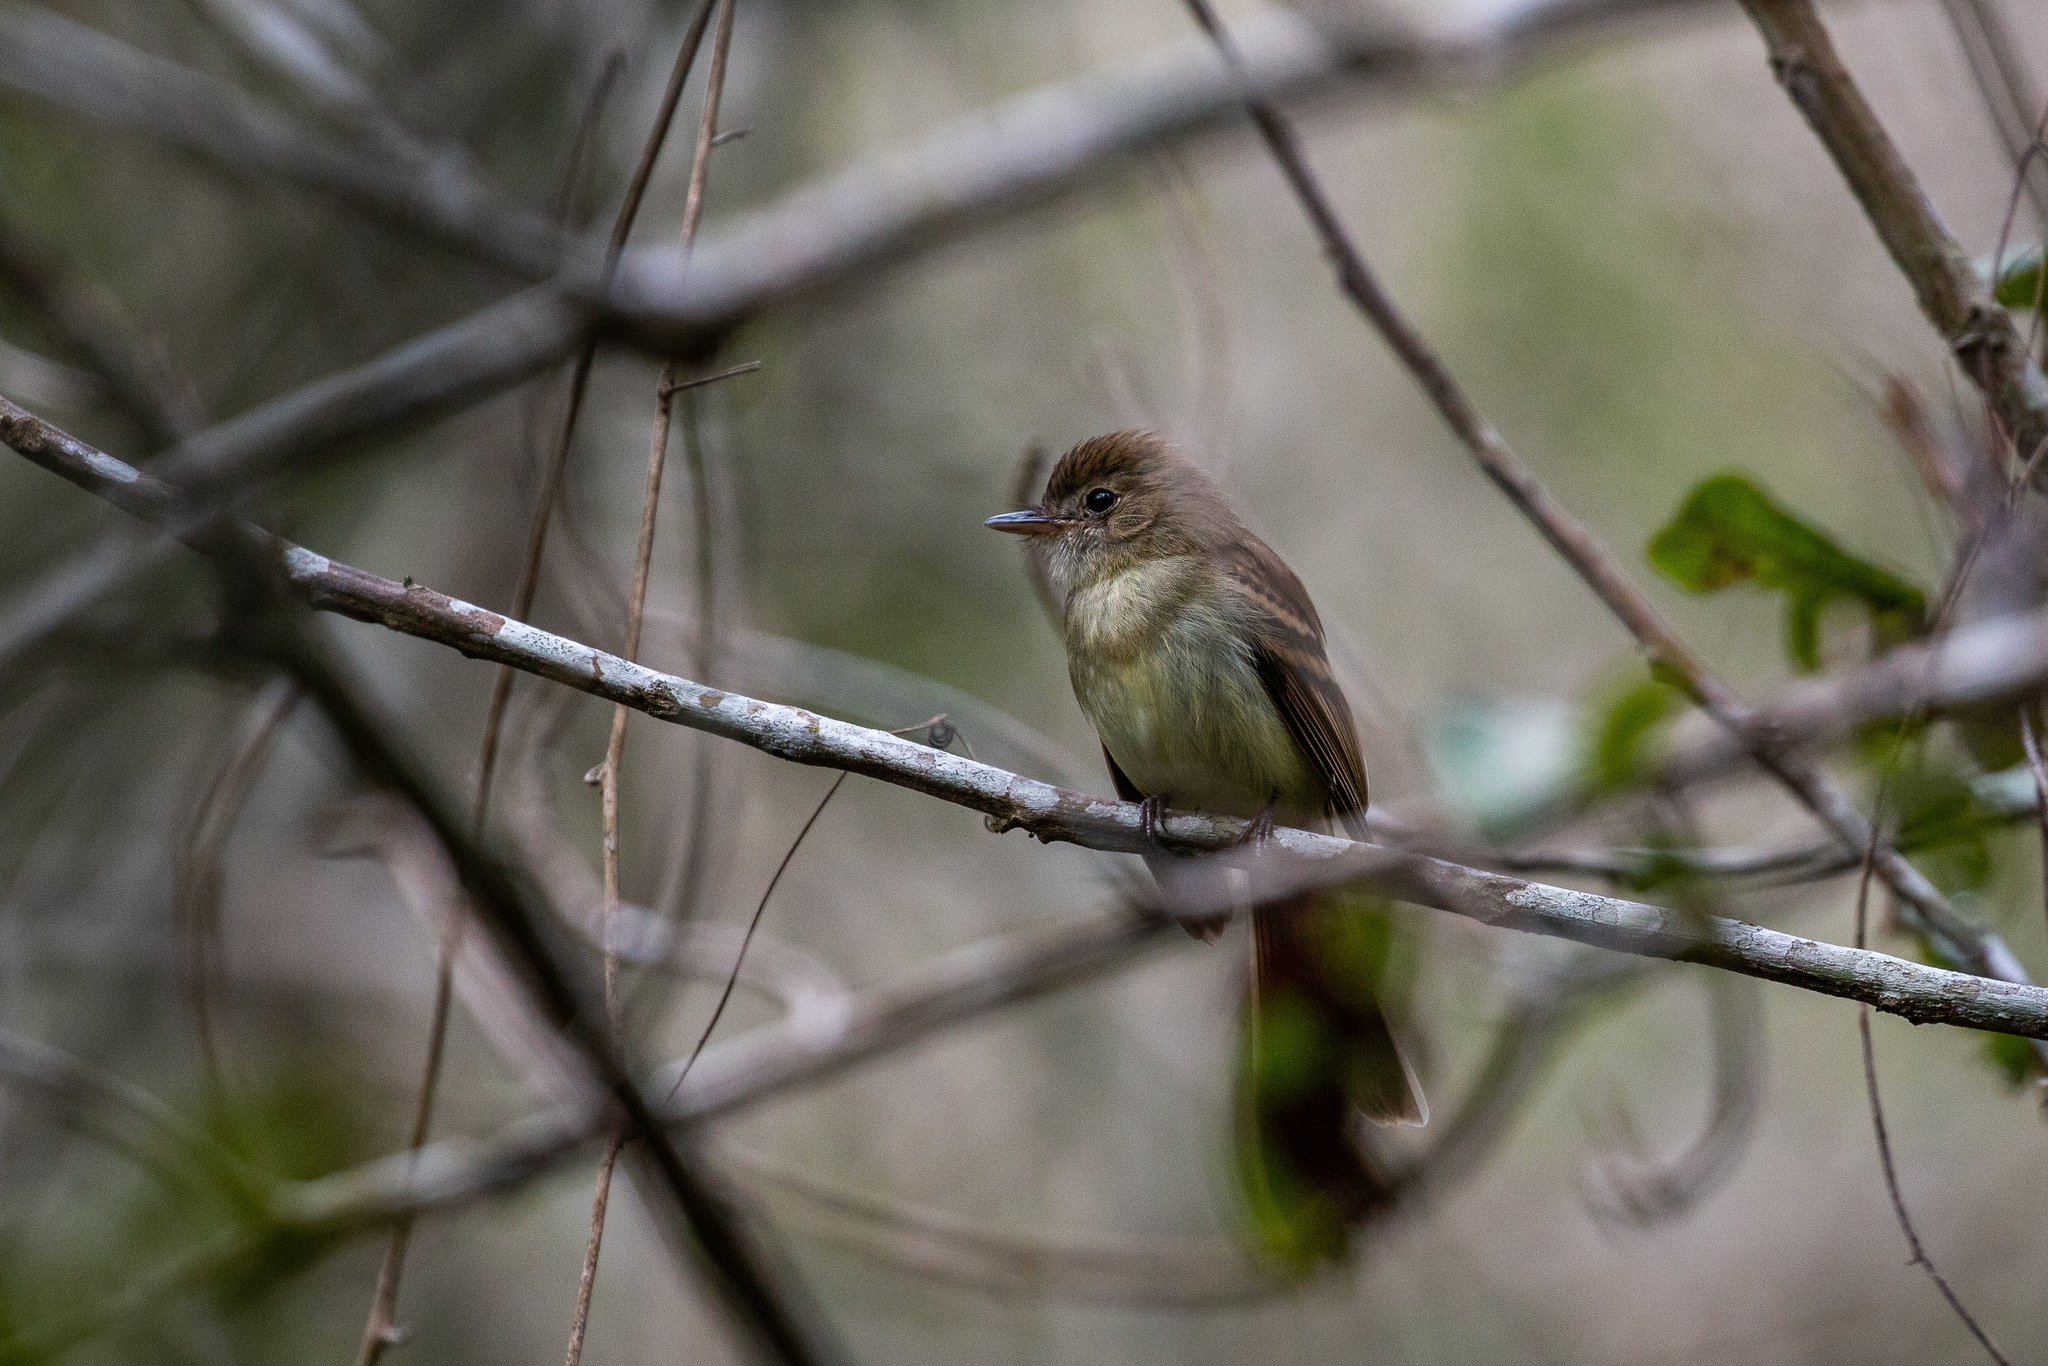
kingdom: Animalia
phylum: Chordata
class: Aves
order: Passeriformes
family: Tyrannidae
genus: Lathrotriccus
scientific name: Lathrotriccus euleri
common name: Euler's flycatcher
